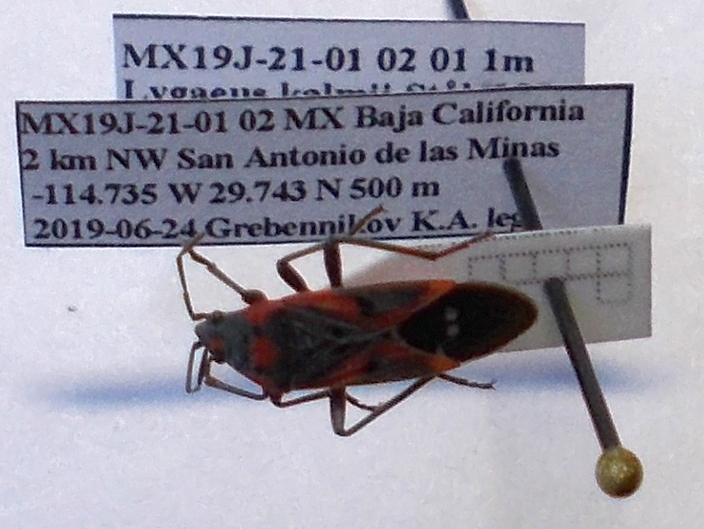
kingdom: Animalia
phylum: Arthropoda
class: Insecta
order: Hemiptera
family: Lygaeidae
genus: Lygaeus
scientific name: Lygaeus kalmii
